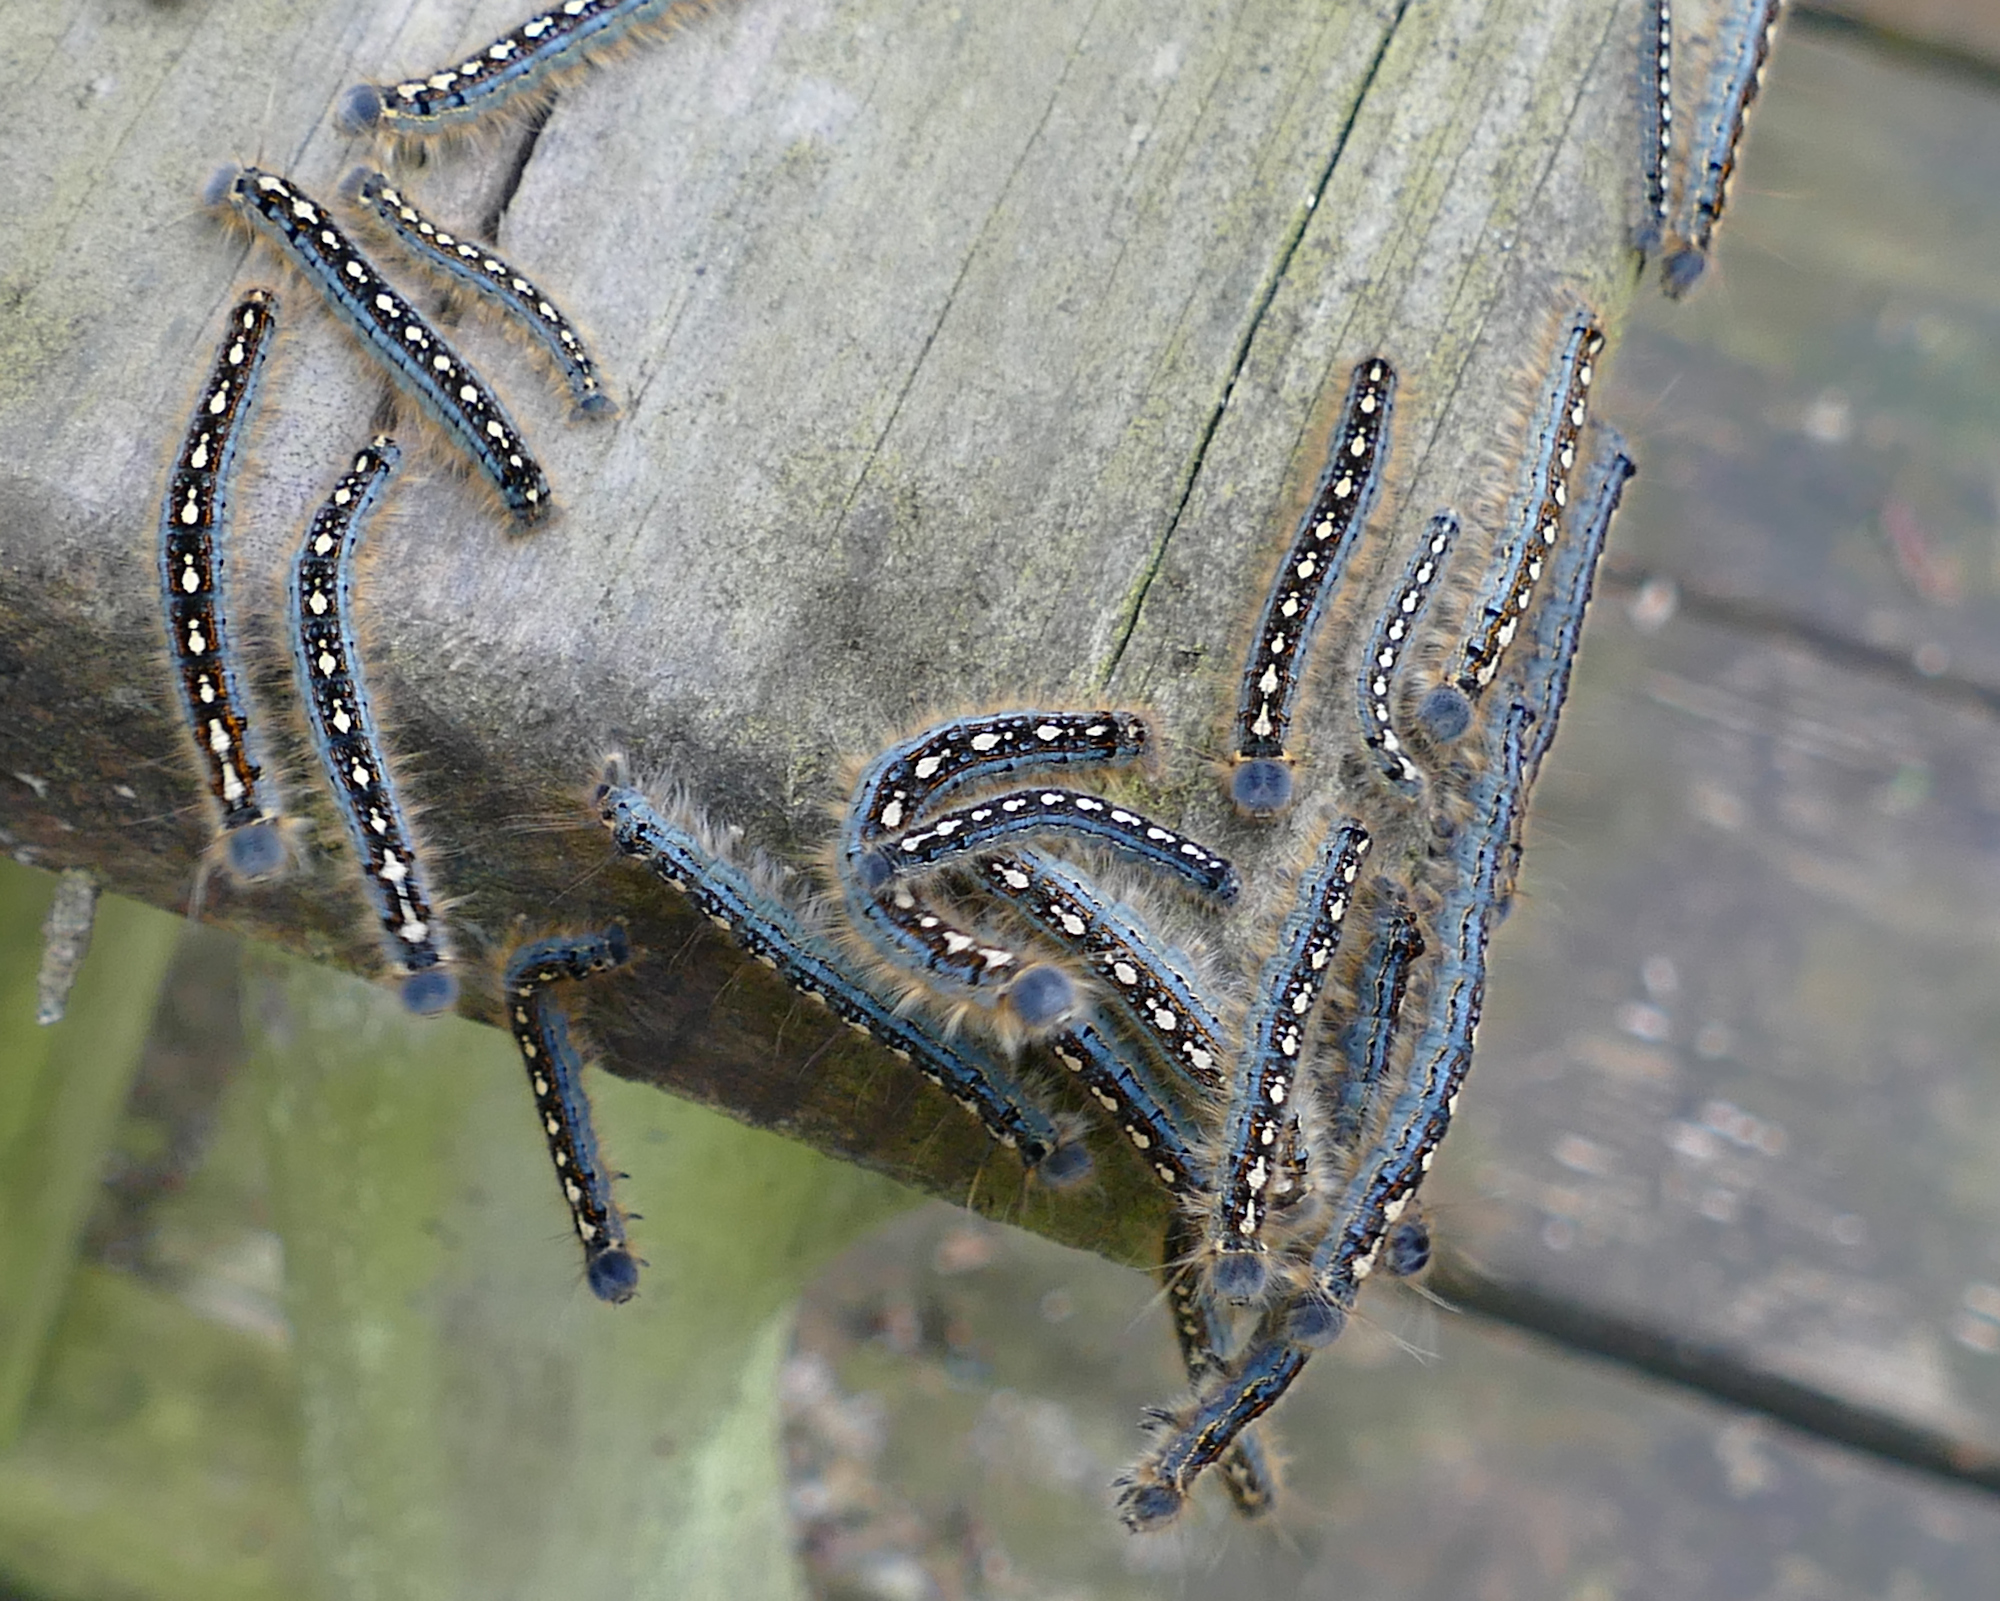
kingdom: Animalia
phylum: Arthropoda
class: Insecta
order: Lepidoptera
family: Lasiocampidae
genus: Malacosoma
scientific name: Malacosoma disstria
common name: Forest tent caterpillar
